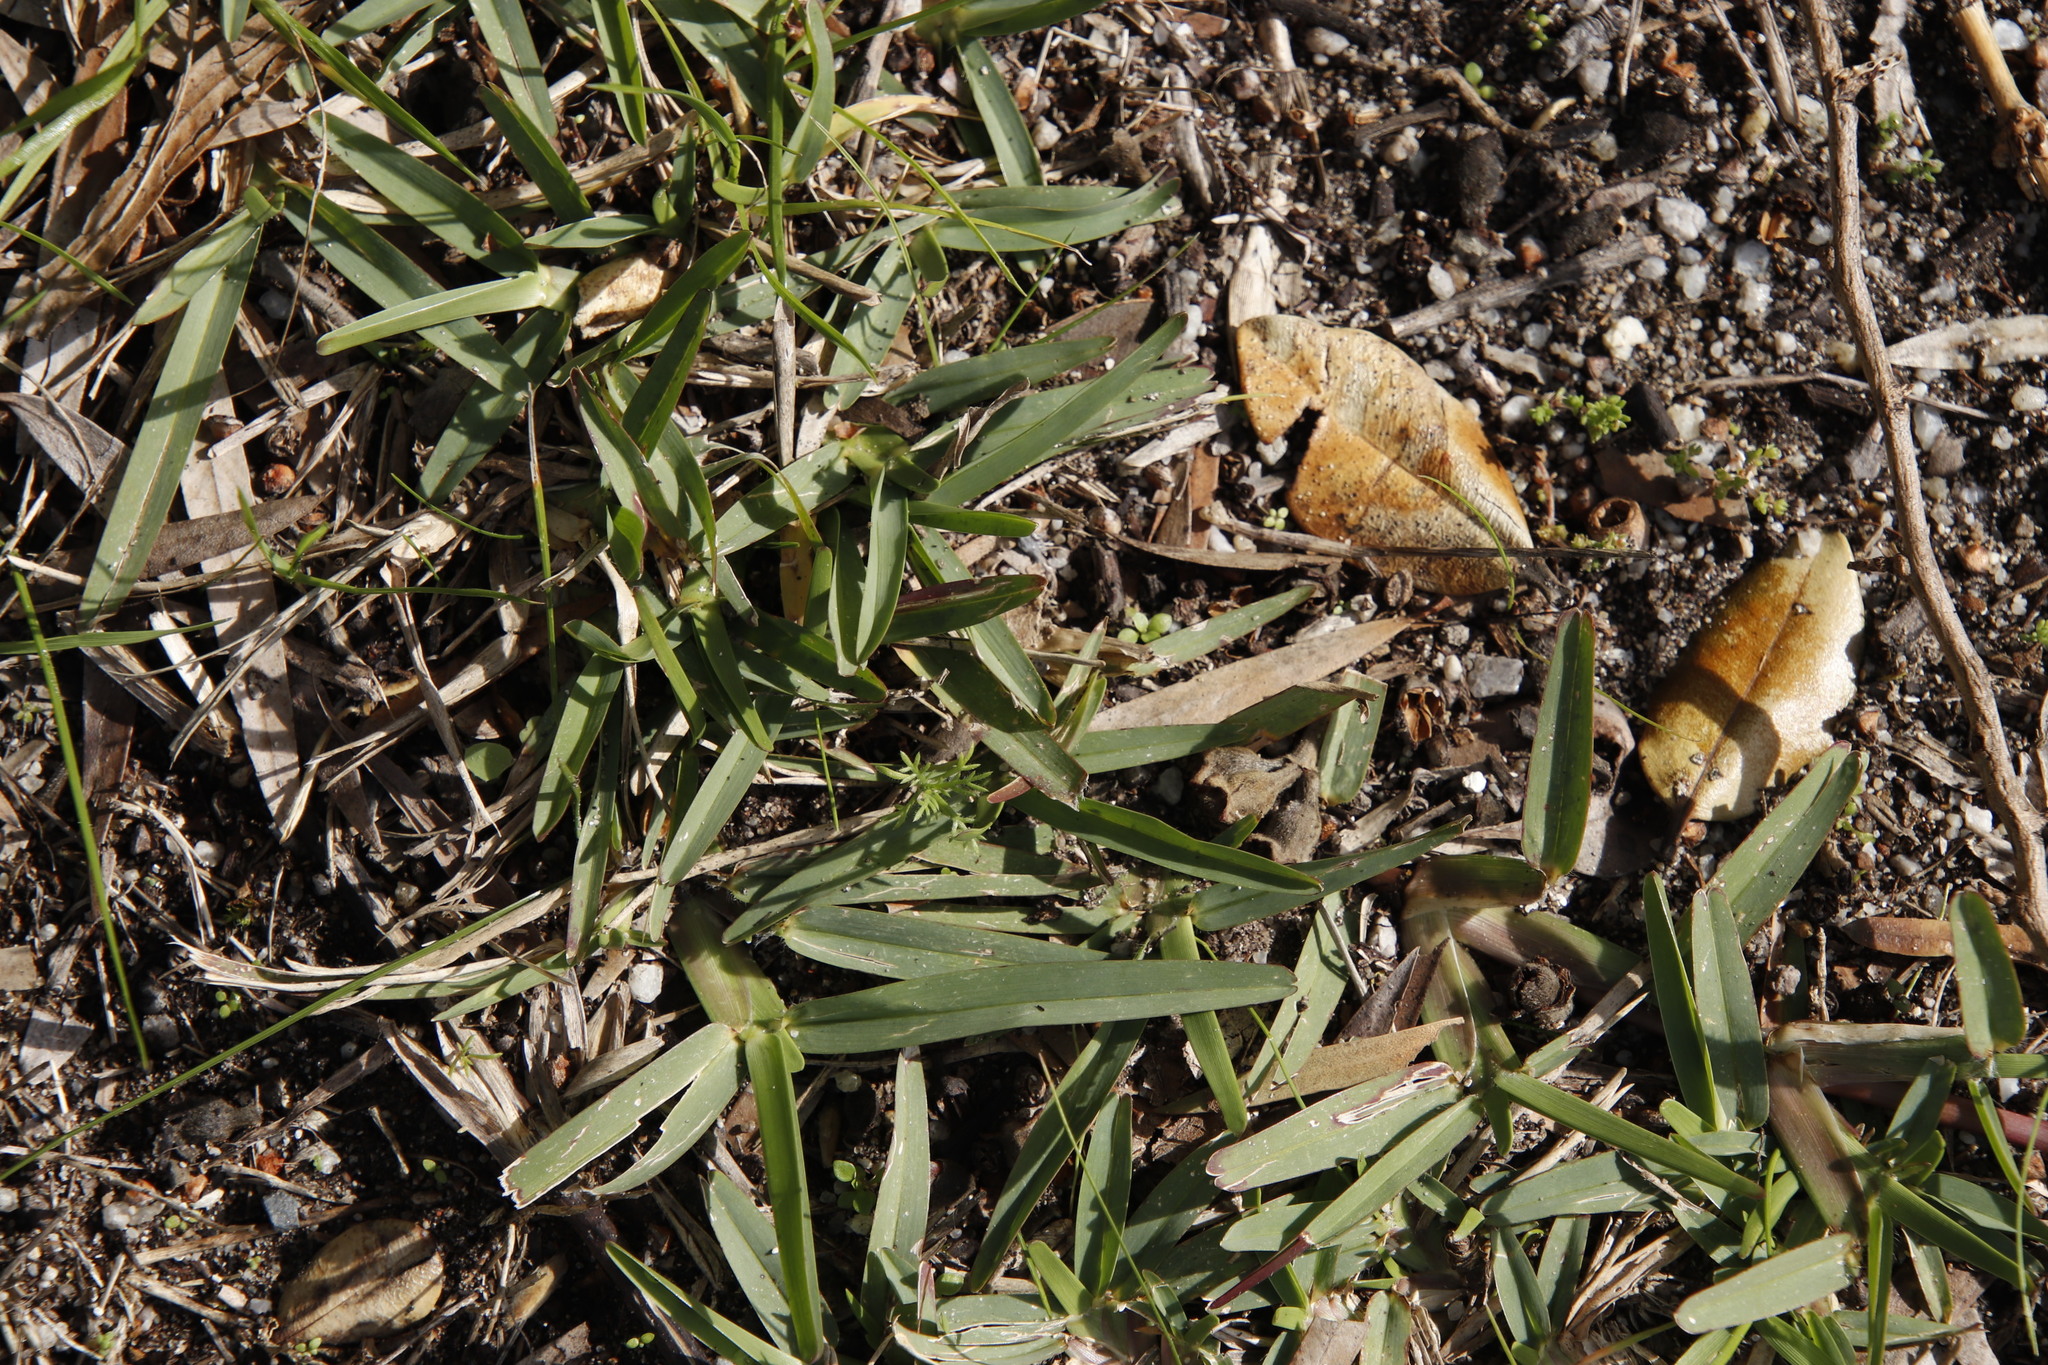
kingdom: Plantae
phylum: Tracheophyta
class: Liliopsida
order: Poales
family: Poaceae
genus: Stenotaphrum
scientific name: Stenotaphrum secundatum
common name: St. augustine grass
